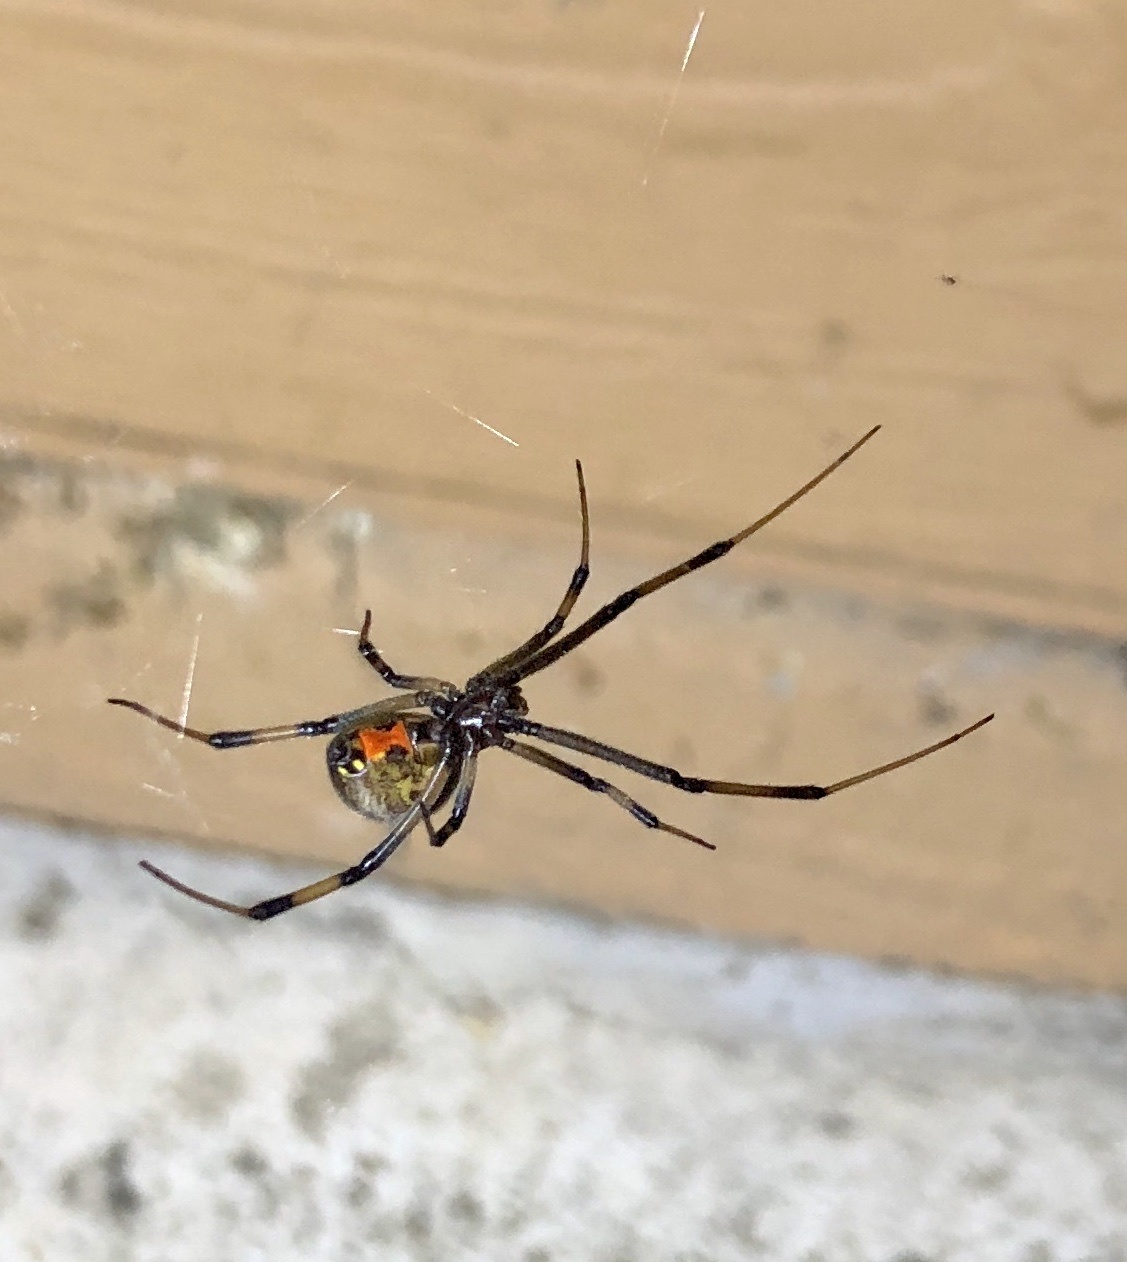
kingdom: Animalia
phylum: Arthropoda
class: Arachnida
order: Araneae
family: Theridiidae
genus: Latrodectus
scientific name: Latrodectus geometricus
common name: Brown widow spider
